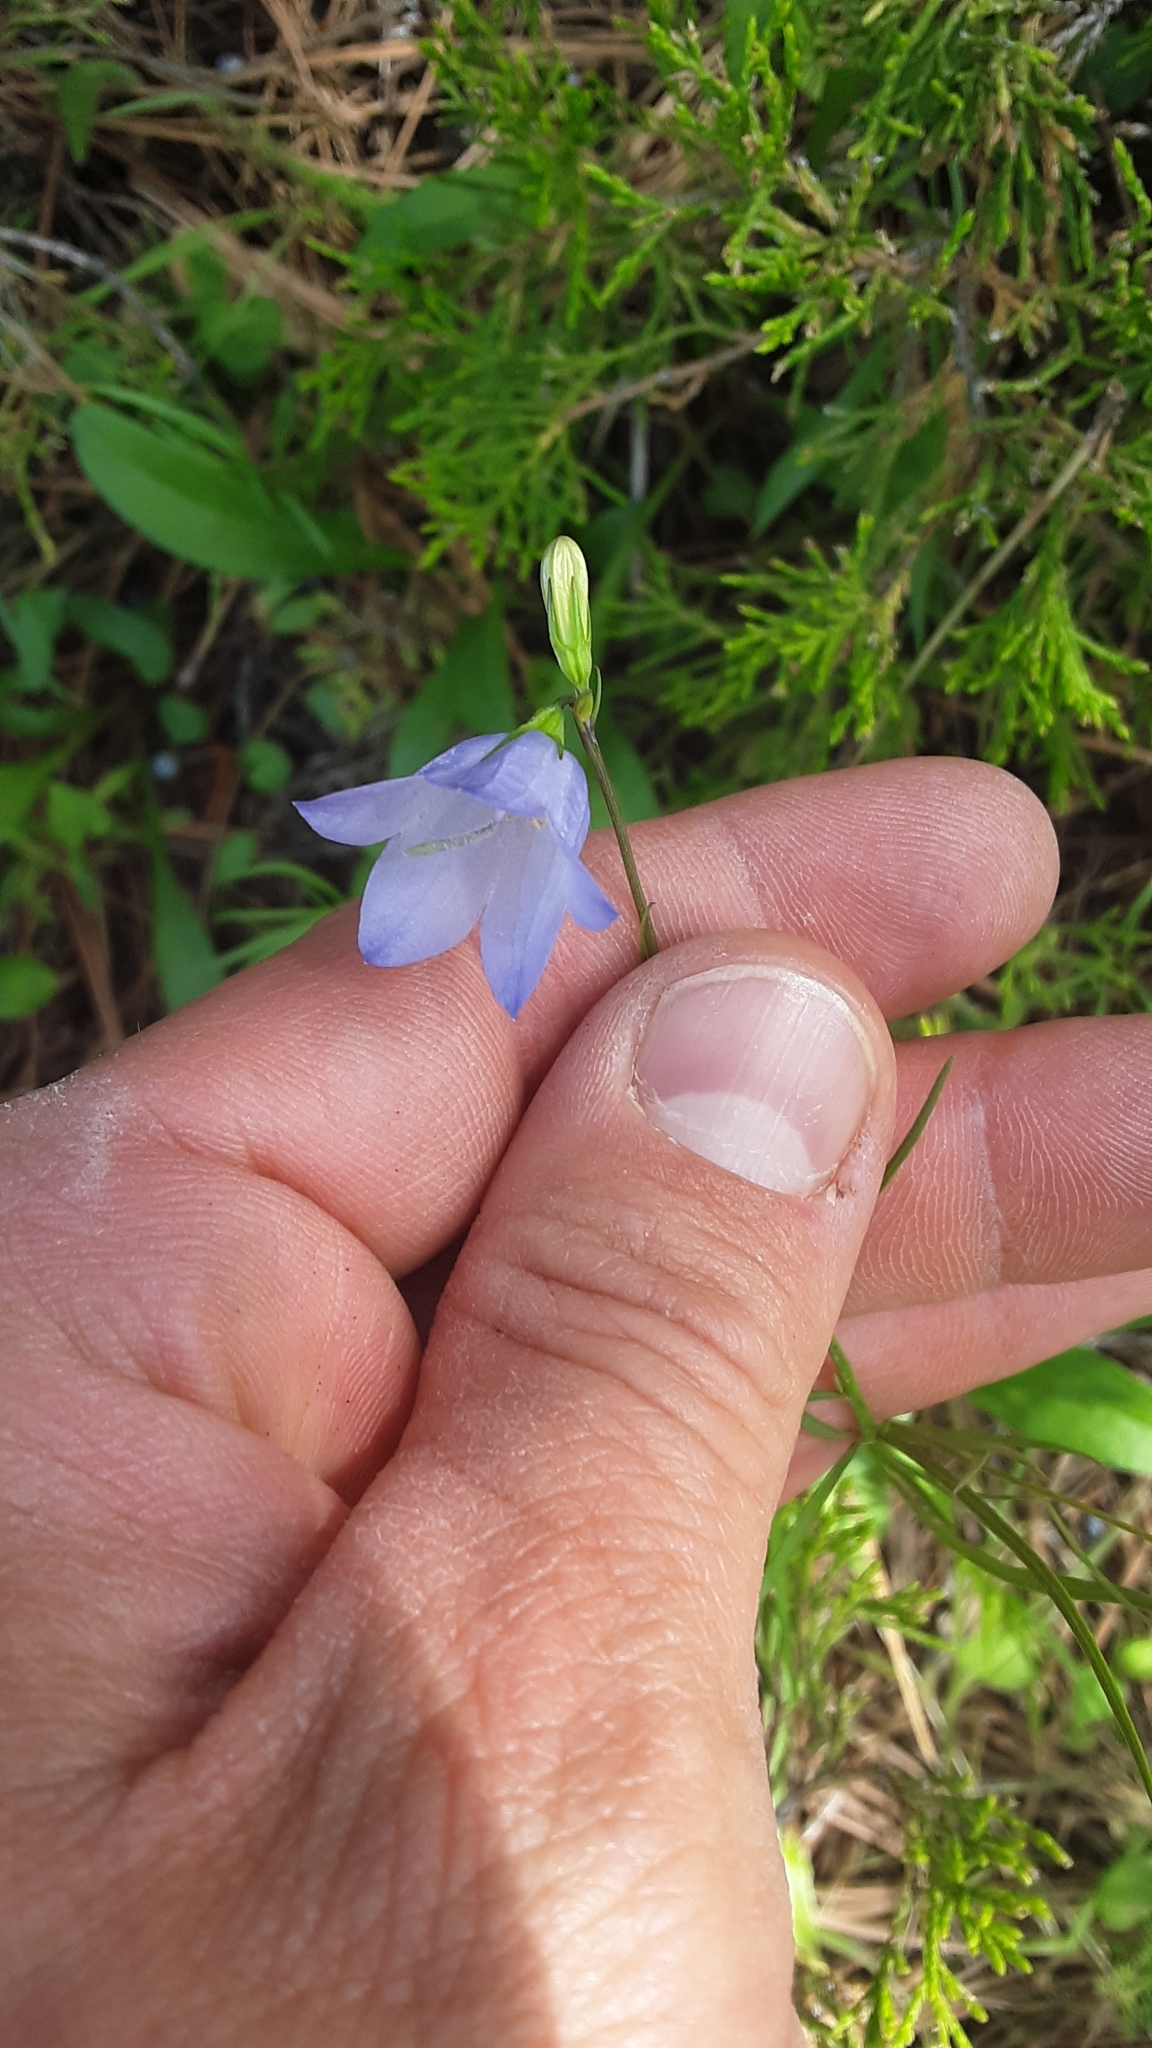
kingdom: Plantae
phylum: Tracheophyta
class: Magnoliopsida
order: Asterales
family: Campanulaceae
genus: Campanula
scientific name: Campanula petiolata
